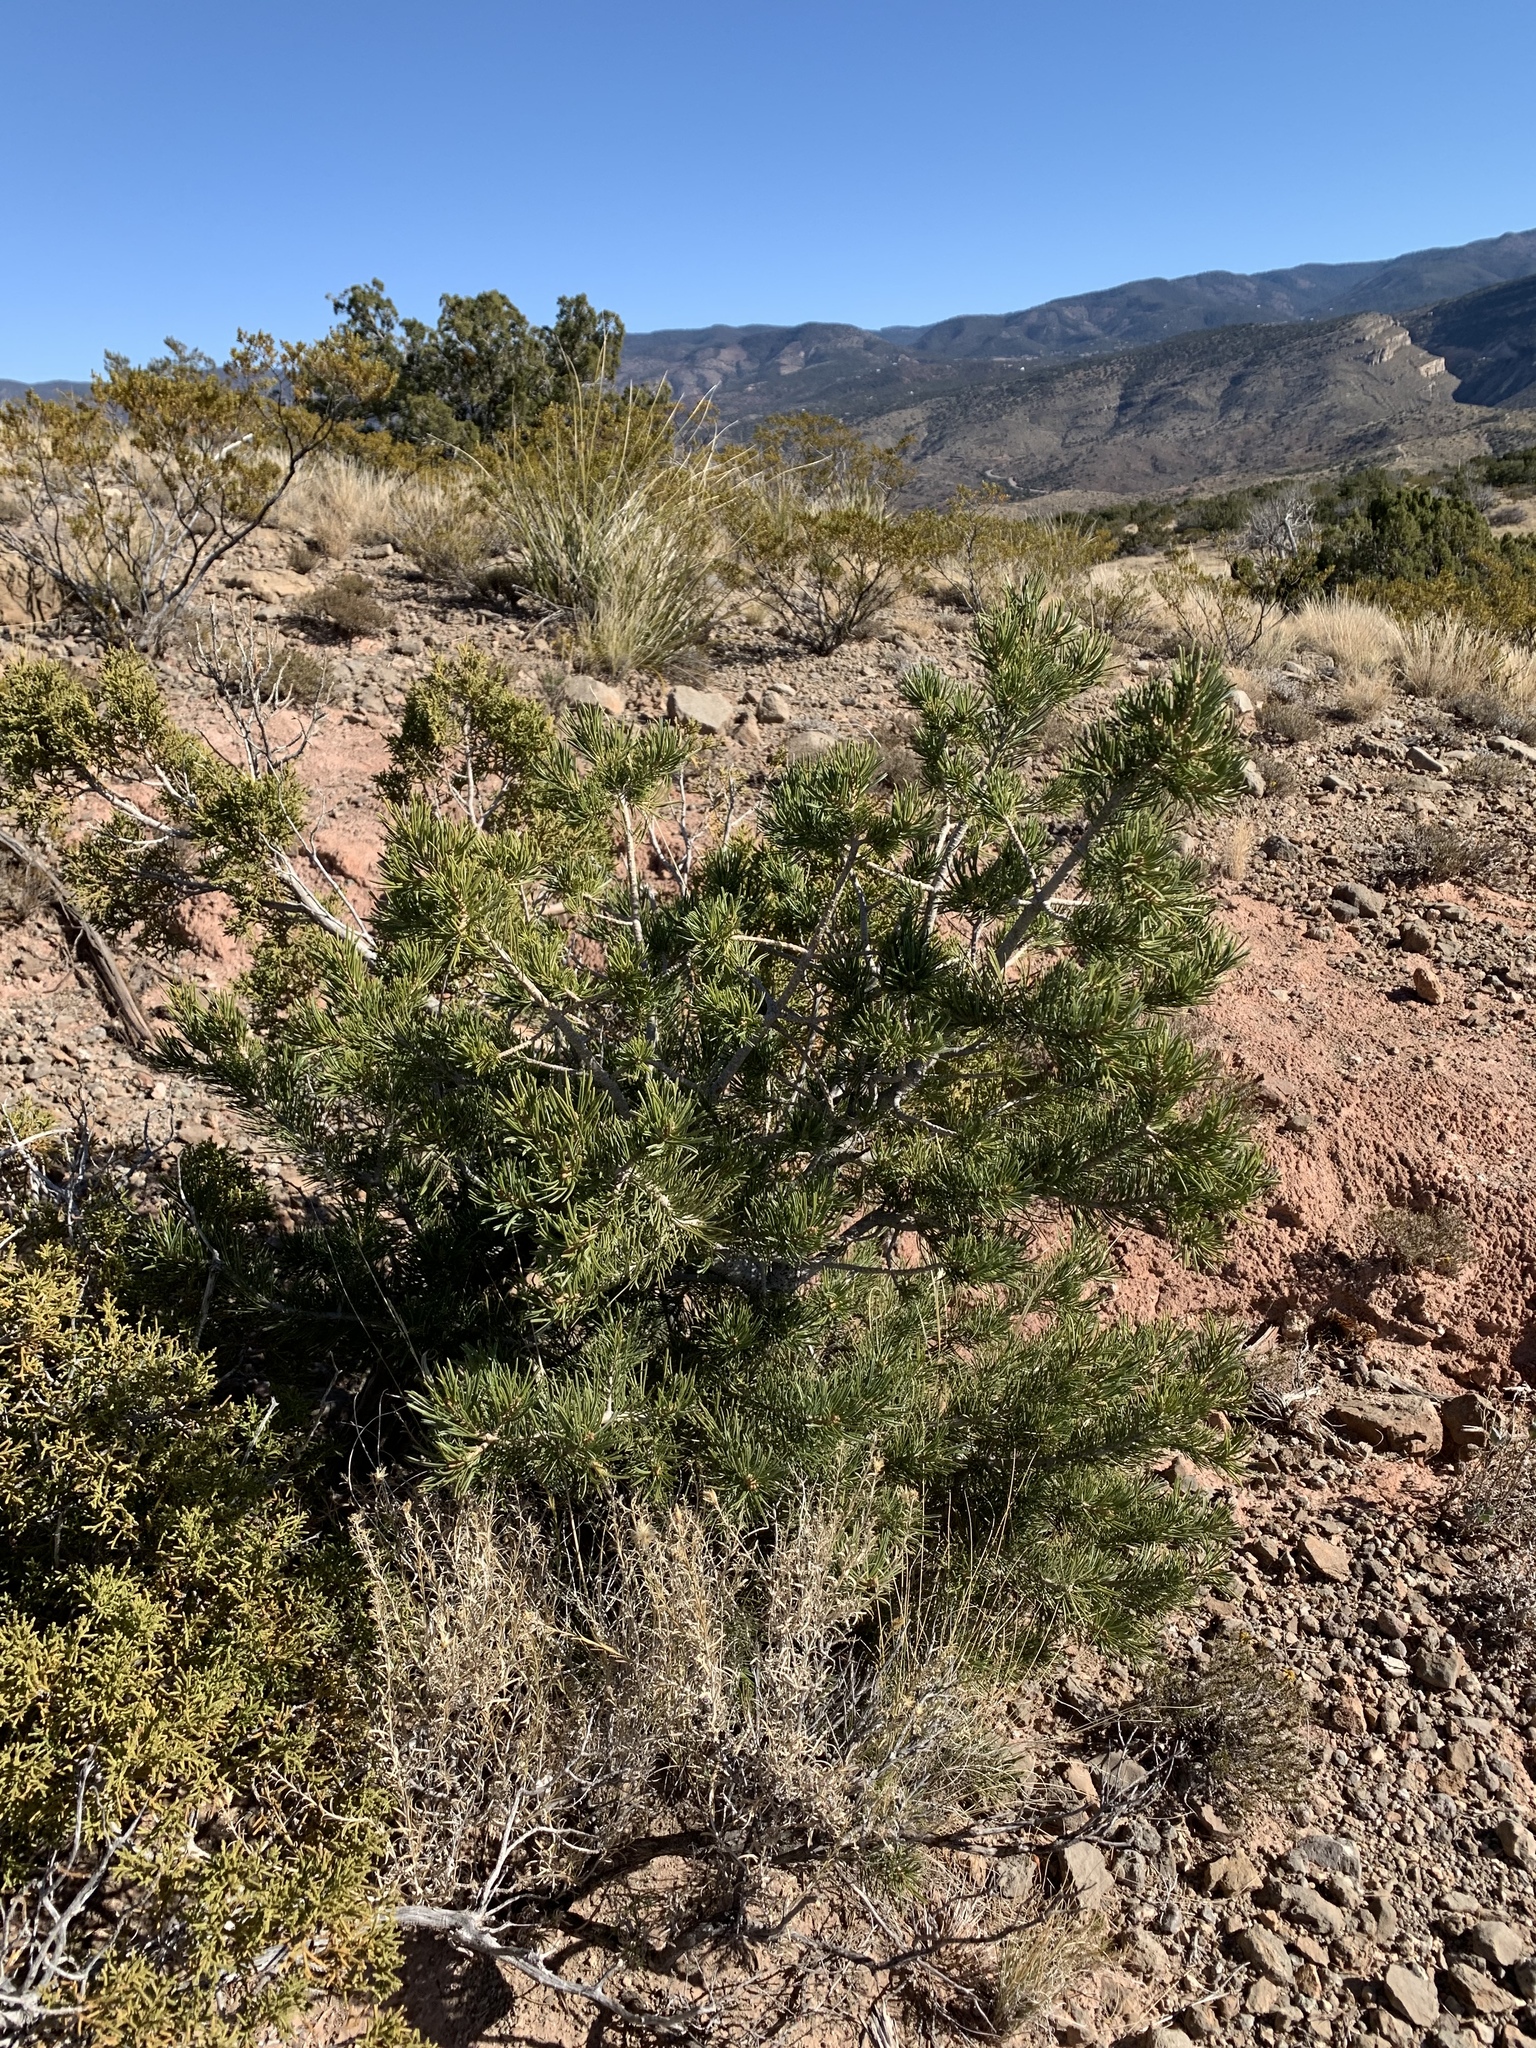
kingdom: Plantae
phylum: Tracheophyta
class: Pinopsida
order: Pinales
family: Pinaceae
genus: Pinus
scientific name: Pinus edulis
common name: Colorado pinyon
